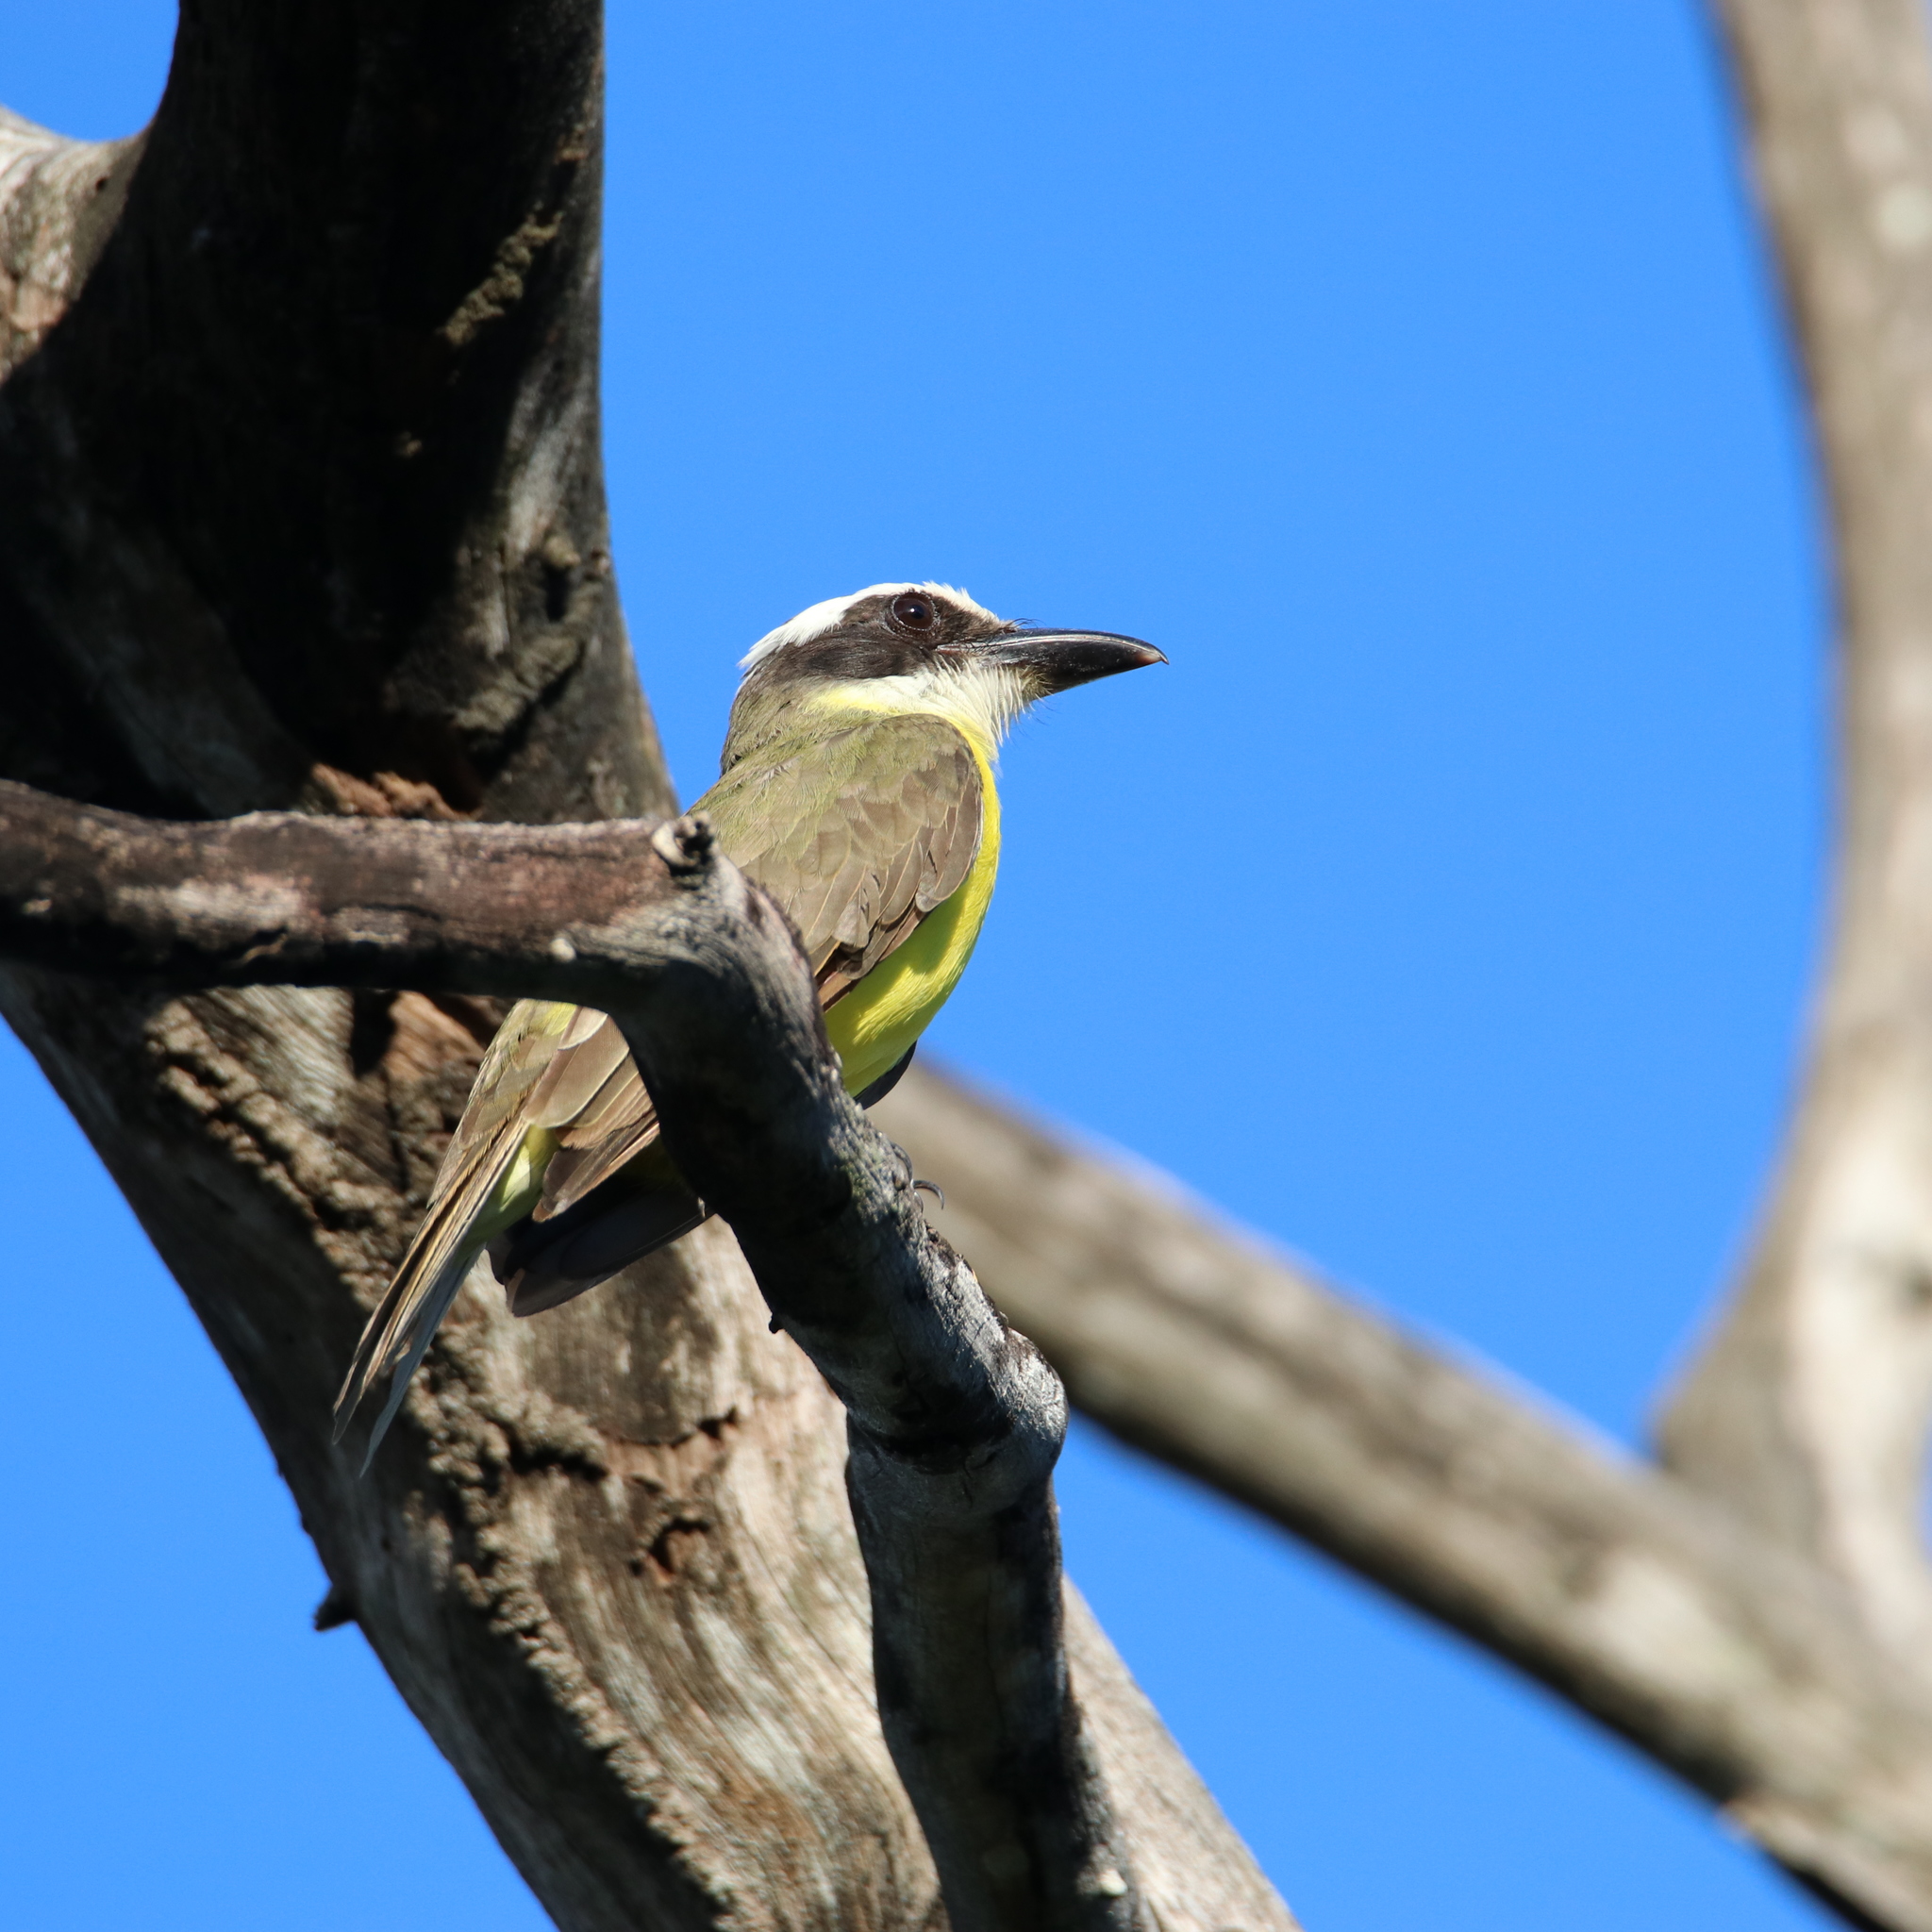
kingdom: Animalia
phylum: Chordata
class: Aves
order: Passeriformes
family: Tyrannidae
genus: Megarynchus
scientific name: Megarynchus pitangua
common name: Boat-billed flycatcher
